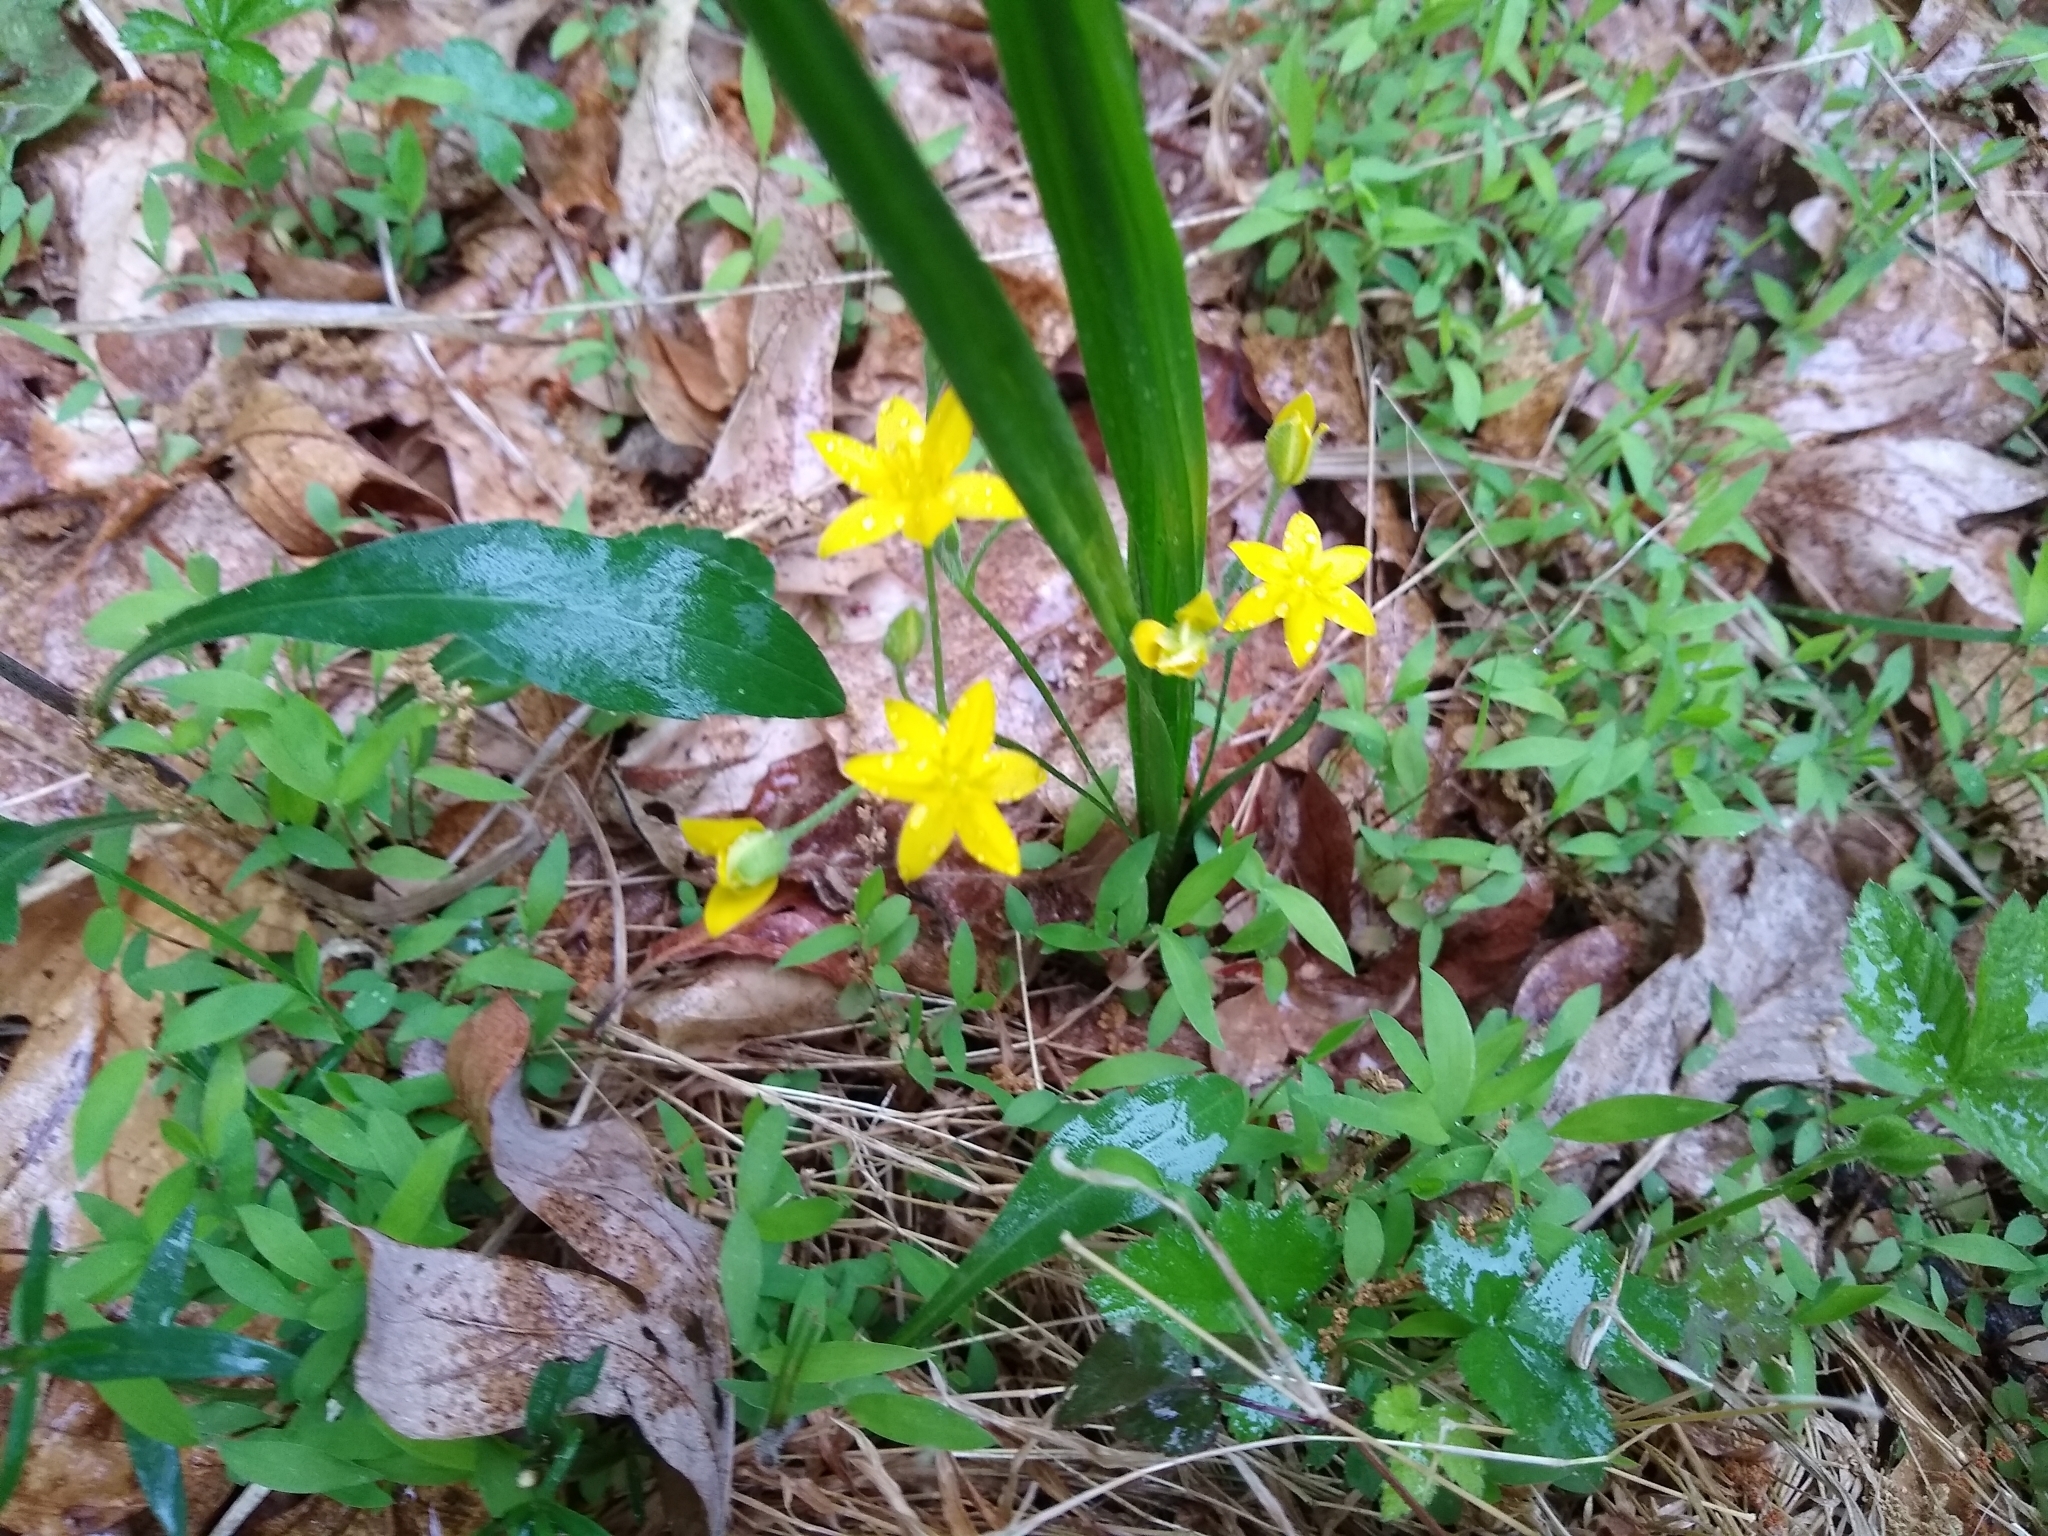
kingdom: Plantae
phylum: Tracheophyta
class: Liliopsida
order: Asparagales
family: Hypoxidaceae
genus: Hypoxis
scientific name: Hypoxis hirsuta
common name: Common goldstar
